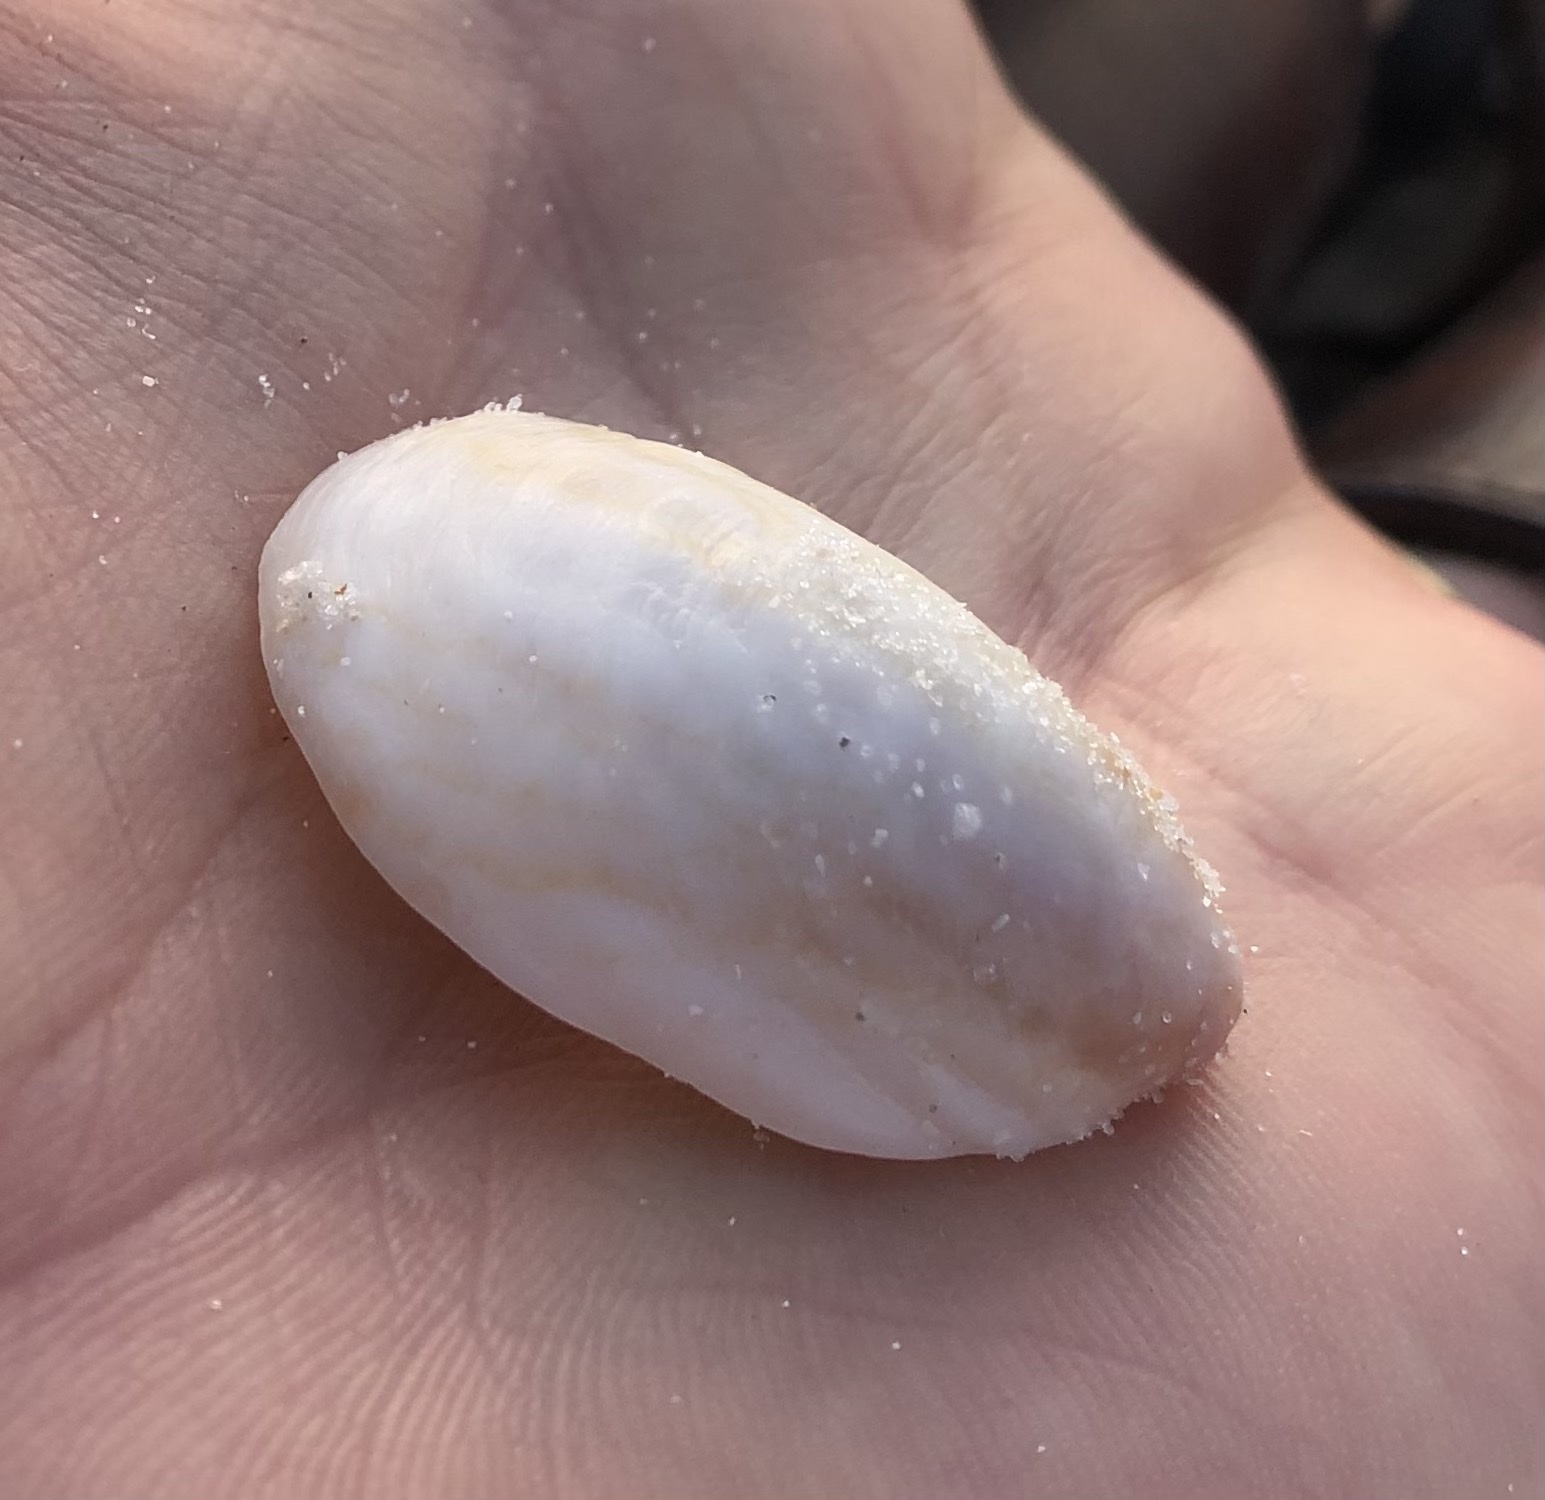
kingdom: Animalia
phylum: Mollusca
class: Gastropoda
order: Littorinimorpha
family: Calyptraeidae
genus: Crepidula
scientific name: Crepidula fornicata
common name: Slipper limpet
